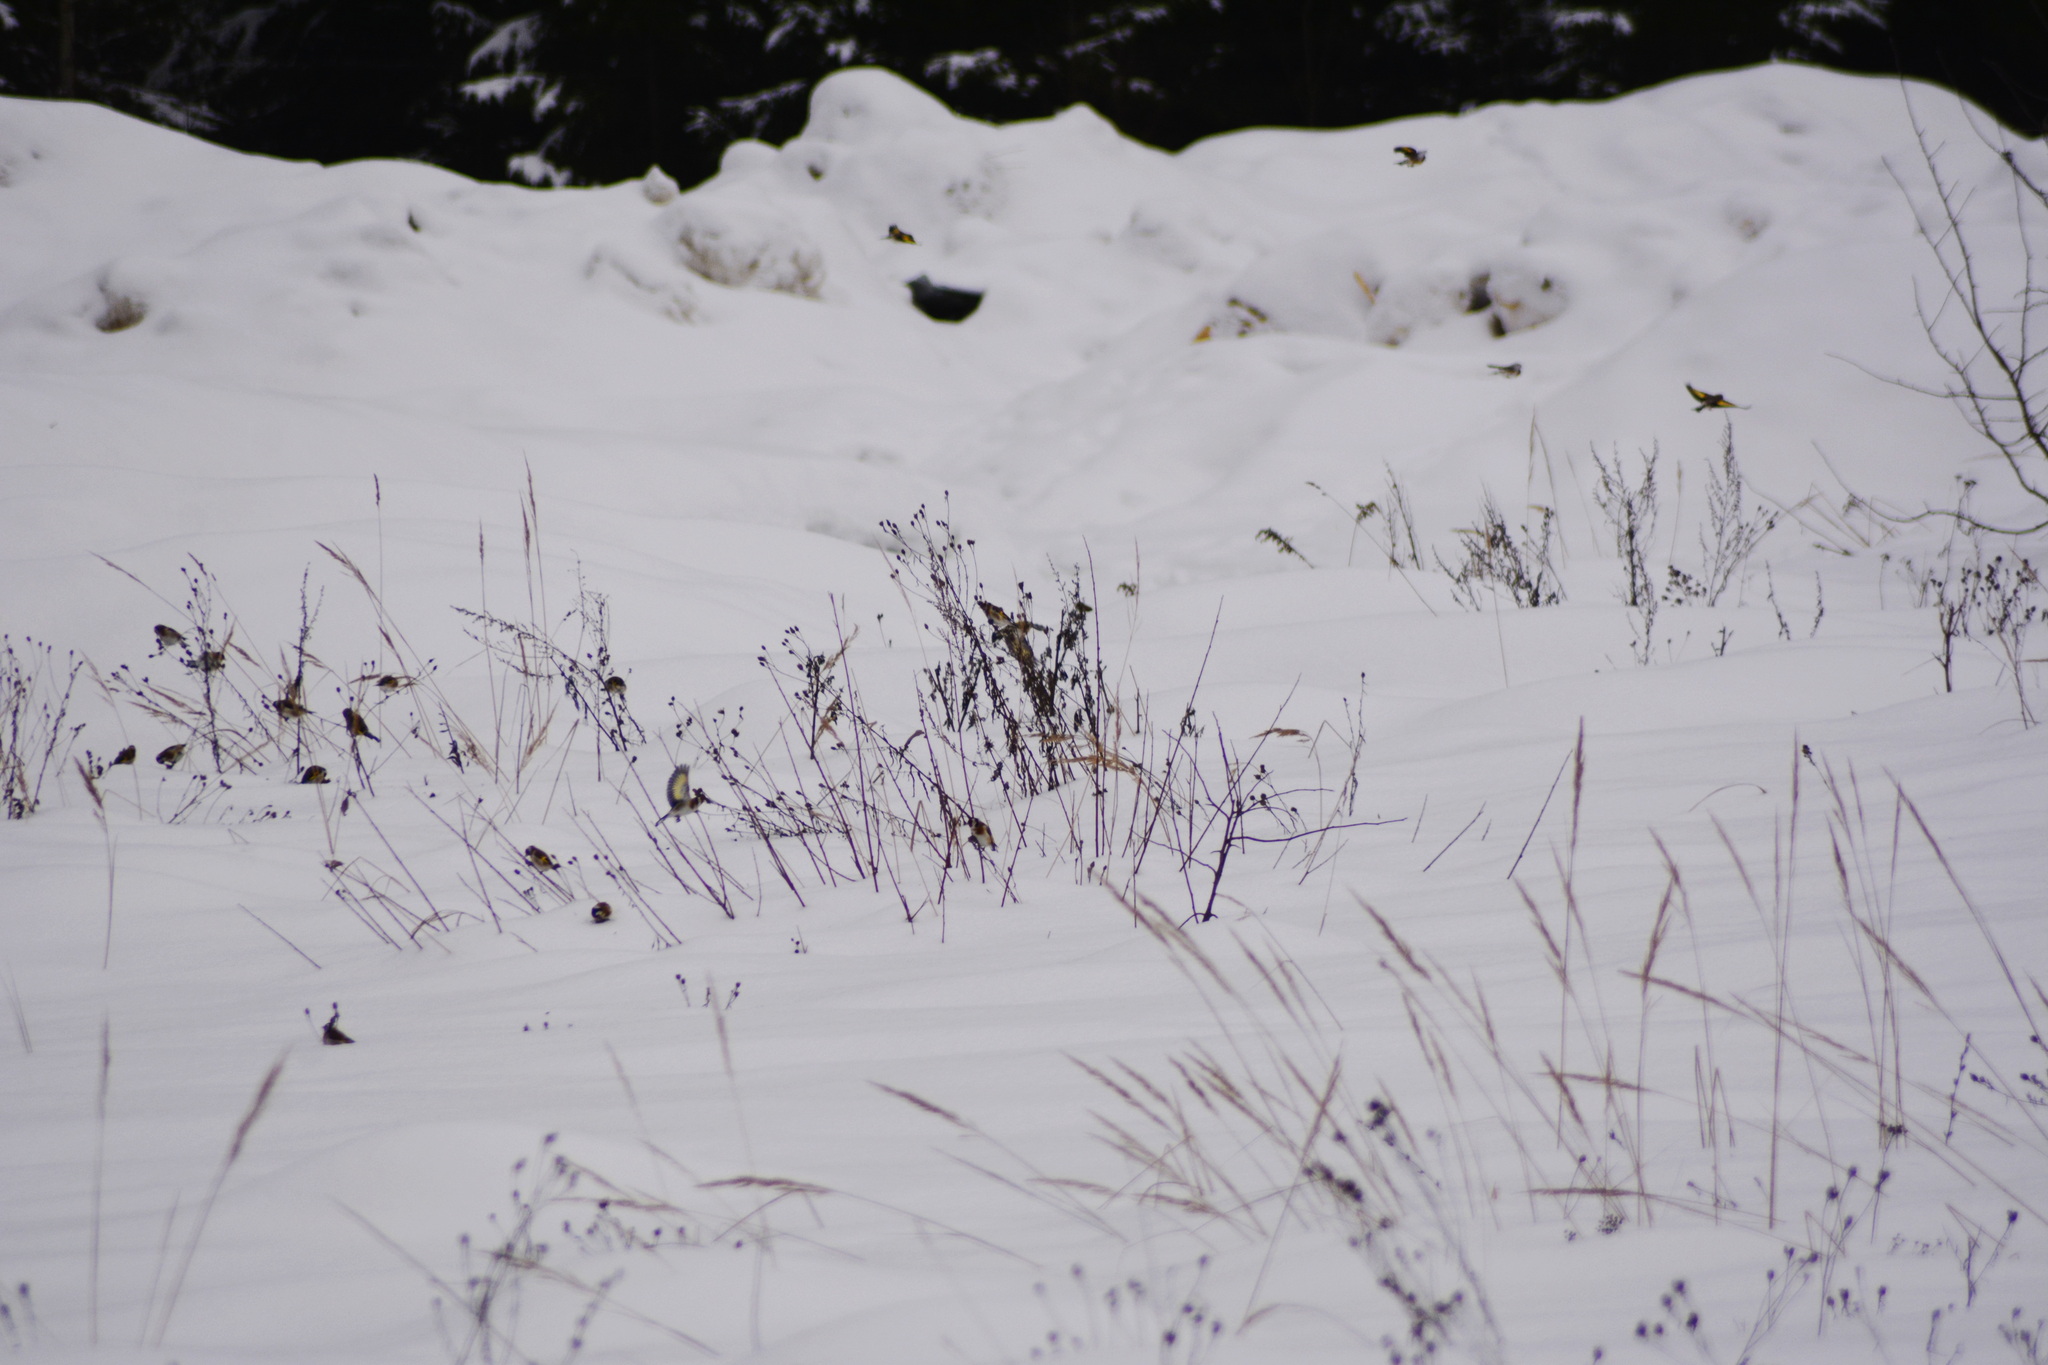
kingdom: Animalia
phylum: Chordata
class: Aves
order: Passeriformes
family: Fringillidae
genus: Carduelis
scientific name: Carduelis carduelis
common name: European goldfinch
